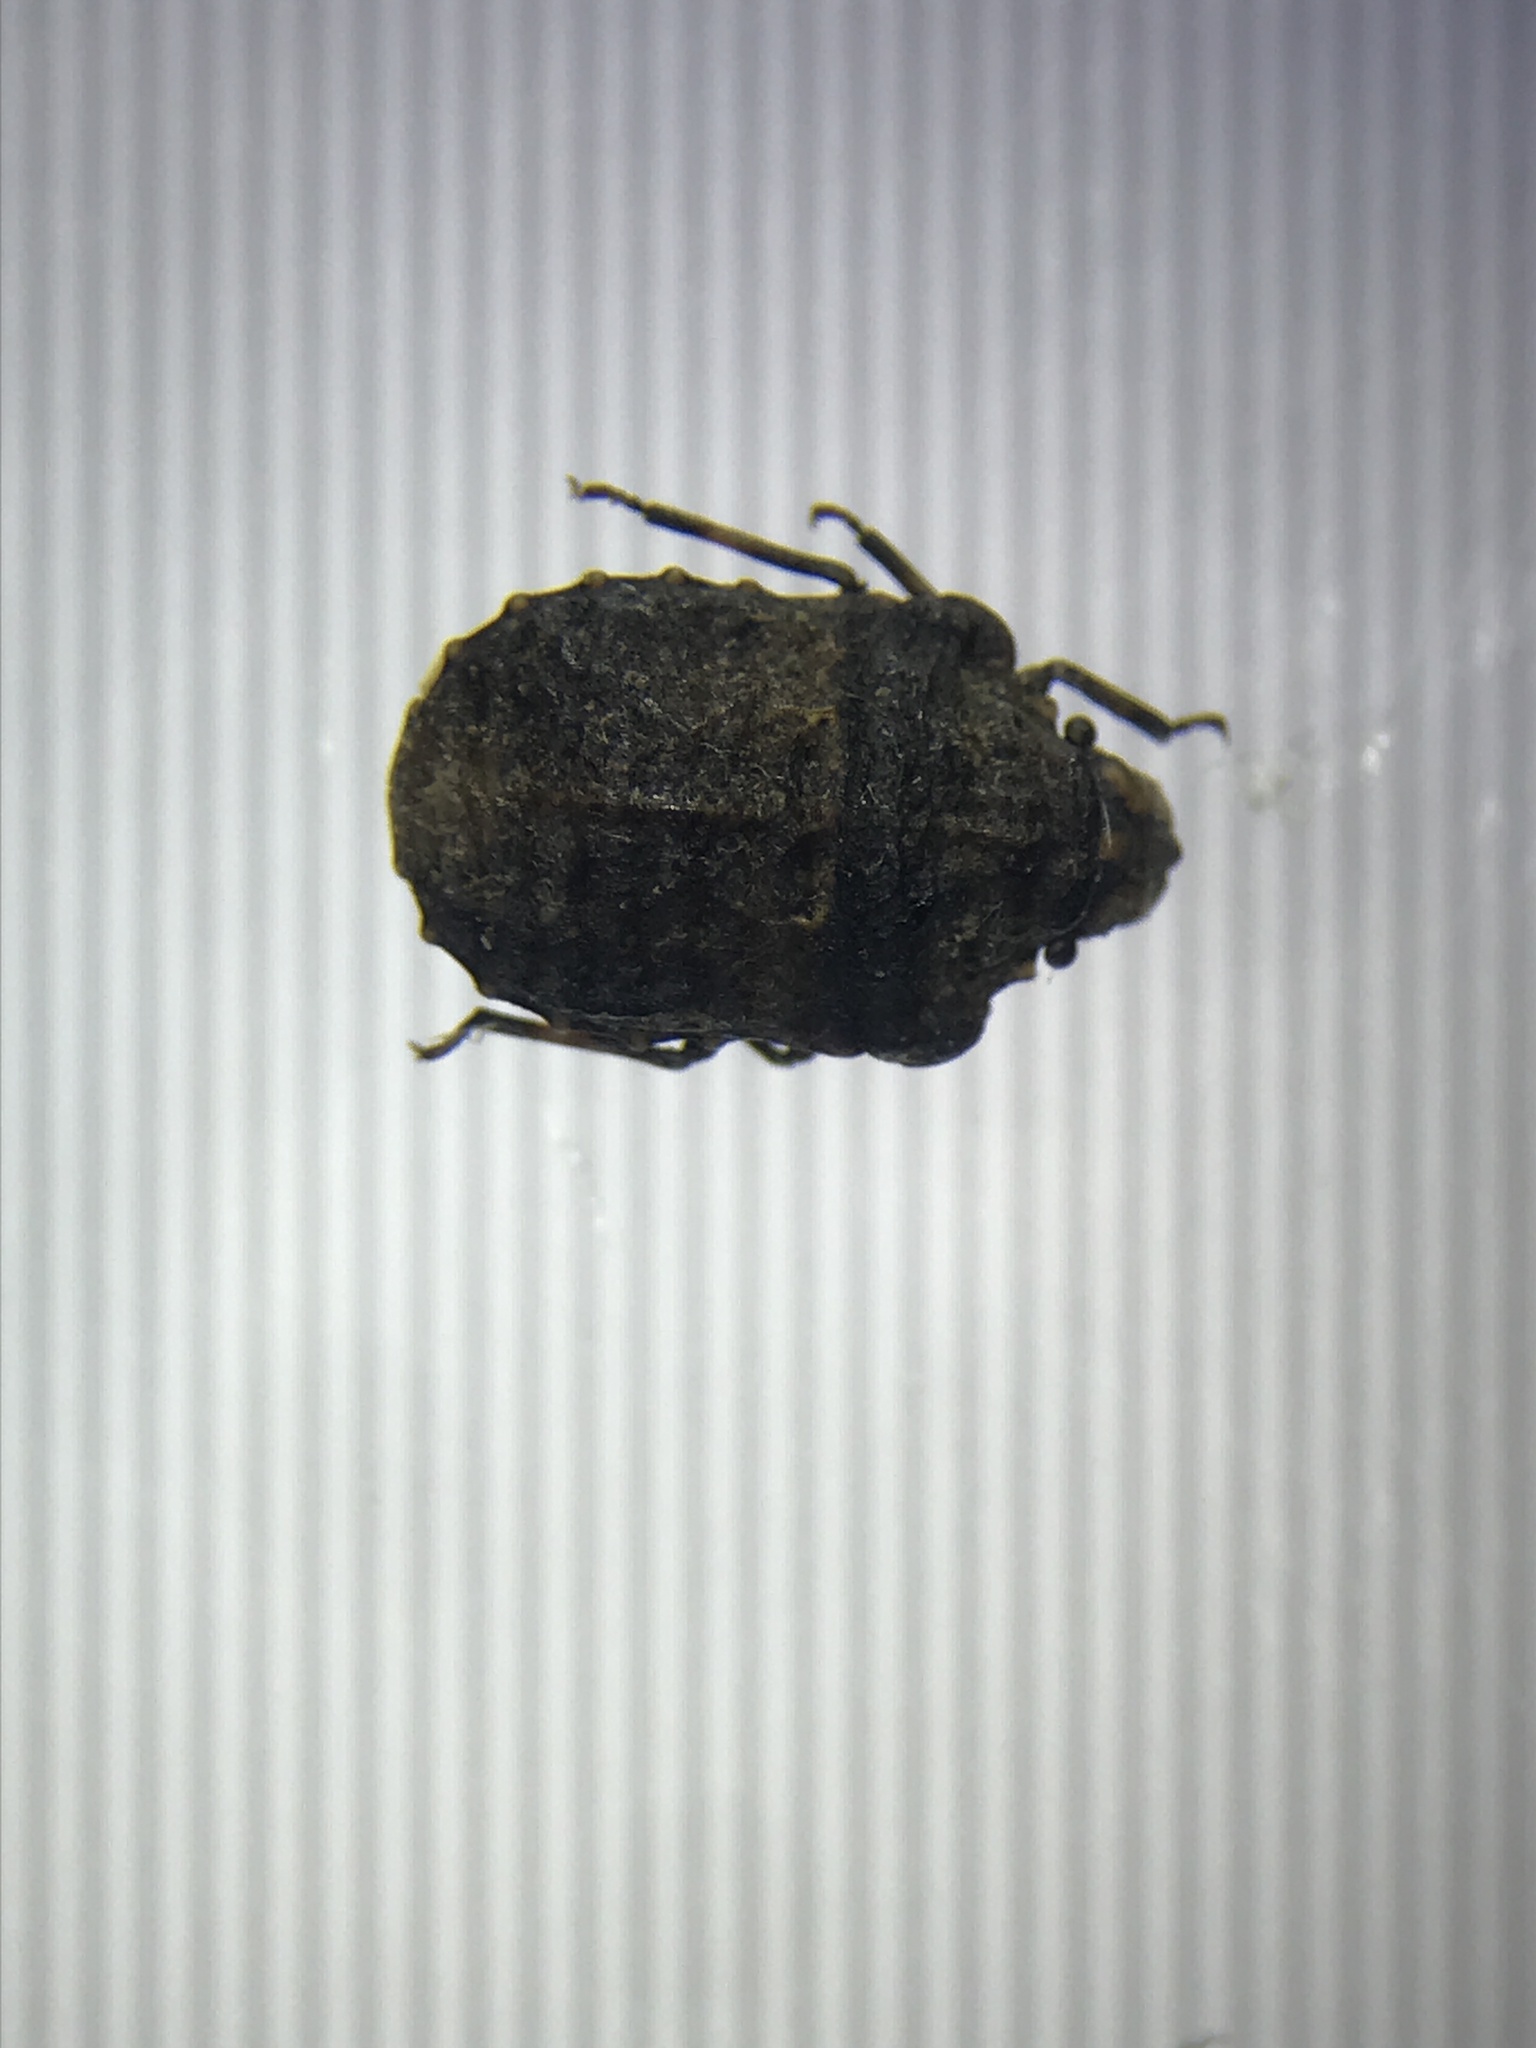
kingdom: Animalia
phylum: Arthropoda
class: Insecta
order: Hemiptera
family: Scutelleridae
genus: Euptychodera
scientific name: Euptychodera corrugata
